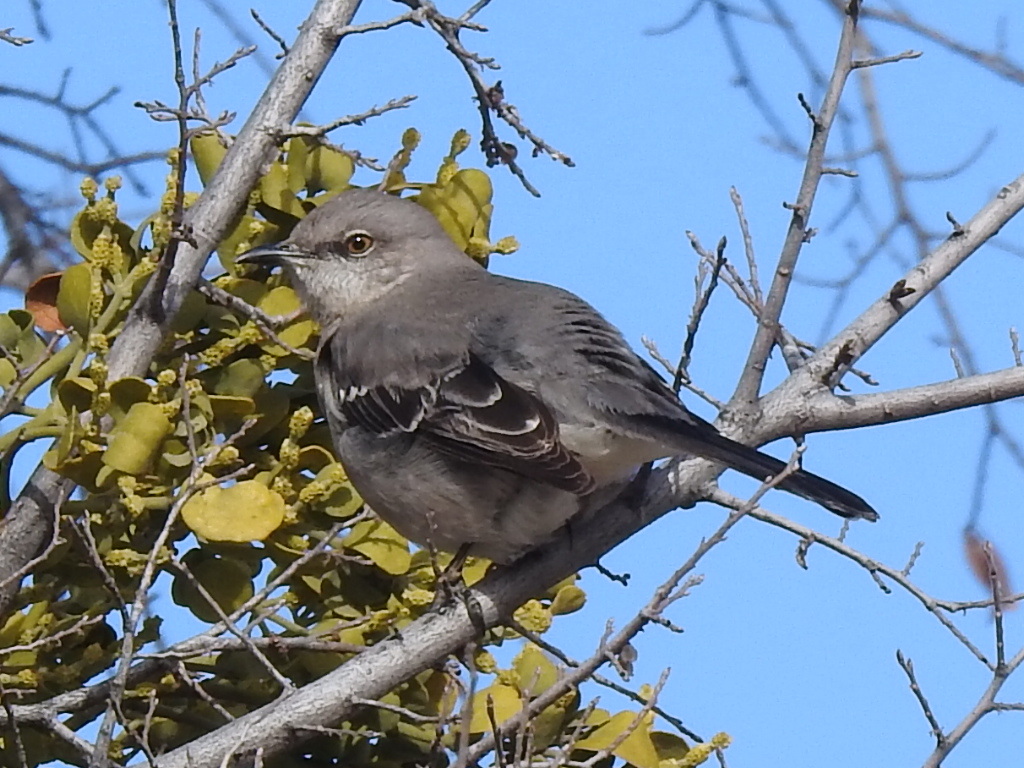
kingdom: Animalia
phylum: Chordata
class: Aves
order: Passeriformes
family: Mimidae
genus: Mimus
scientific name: Mimus polyglottos
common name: Northern mockingbird
